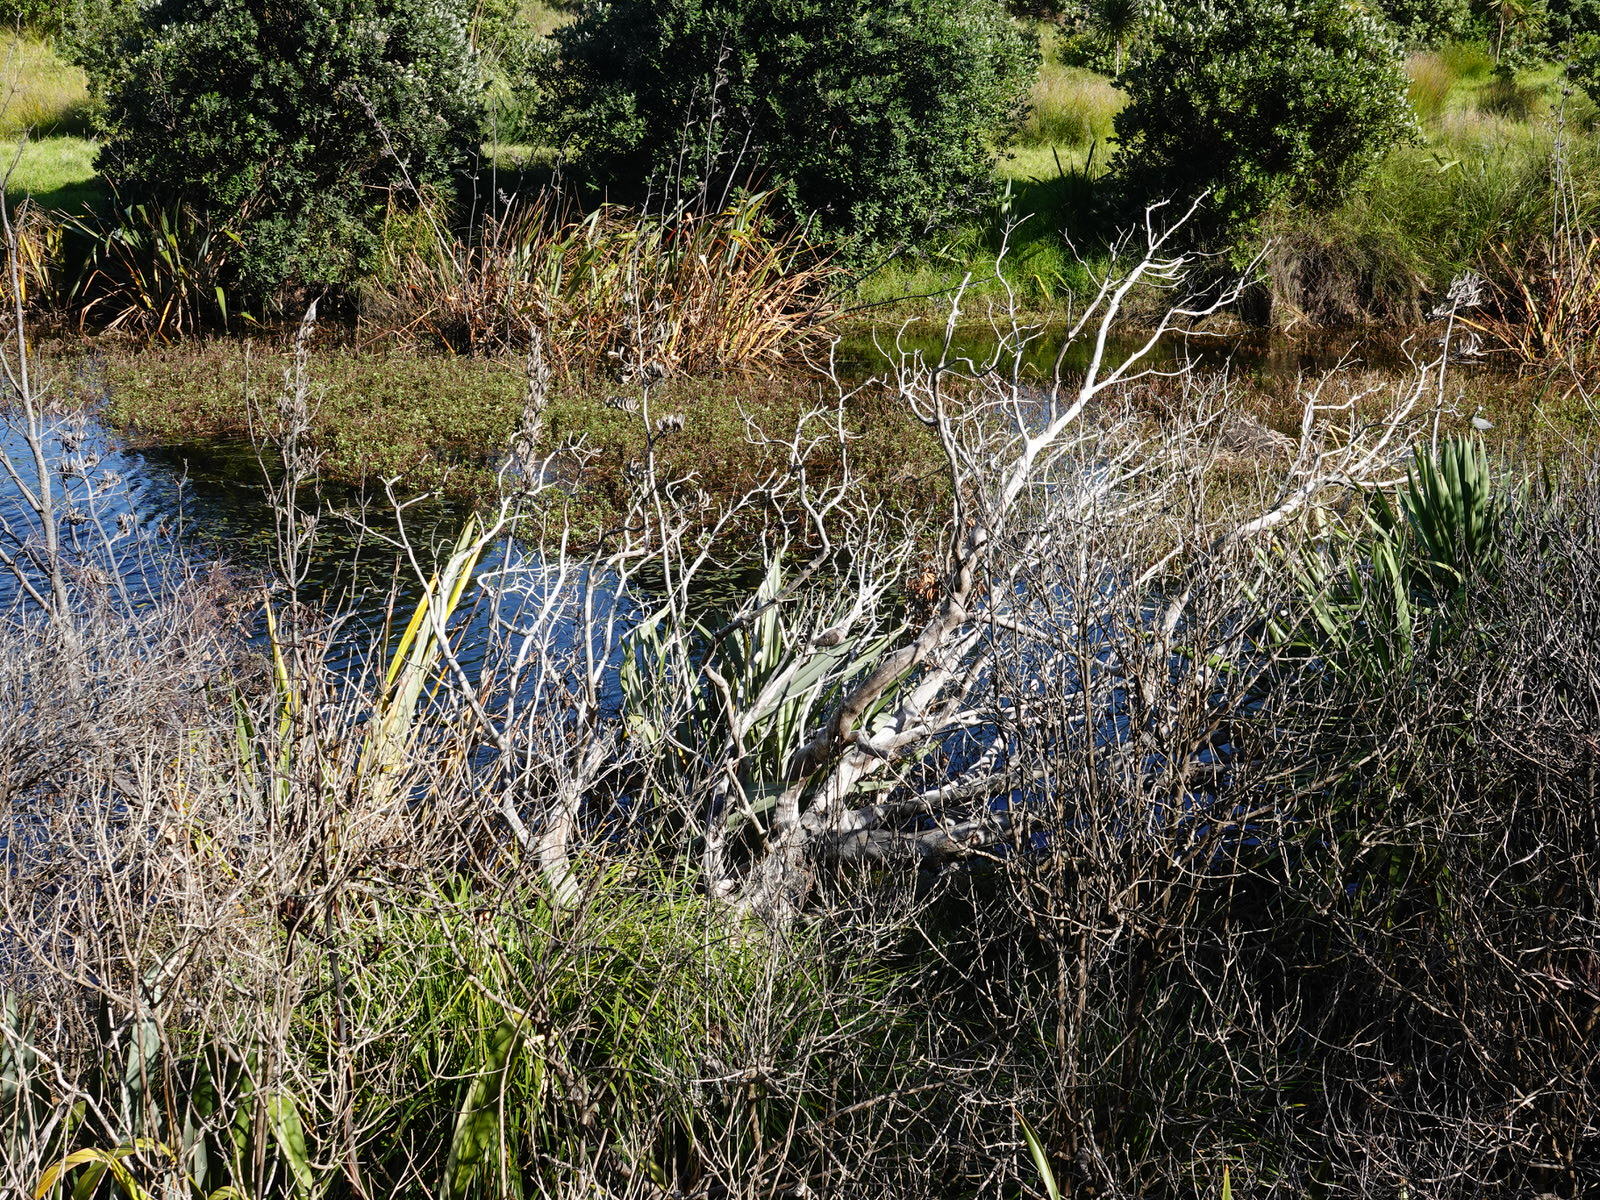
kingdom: Animalia
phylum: Chordata
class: Aves
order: Columbiformes
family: Columbidae
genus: Spilopelia
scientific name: Spilopelia chinensis
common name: Spotted dove
